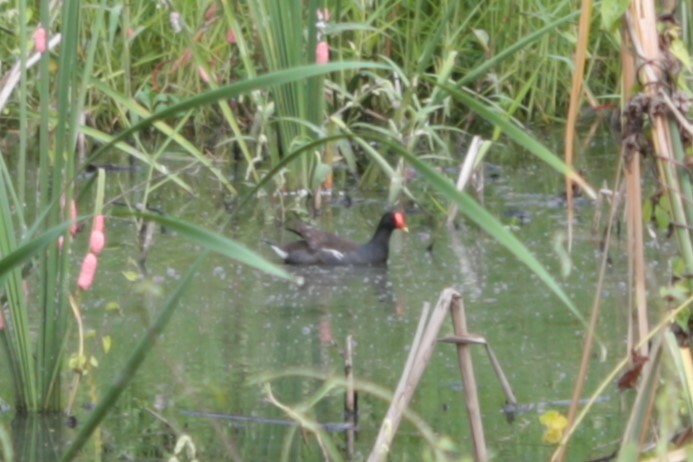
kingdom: Animalia
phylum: Chordata
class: Aves
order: Gruiformes
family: Rallidae
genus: Gallinula
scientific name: Gallinula chloropus
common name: Common moorhen
